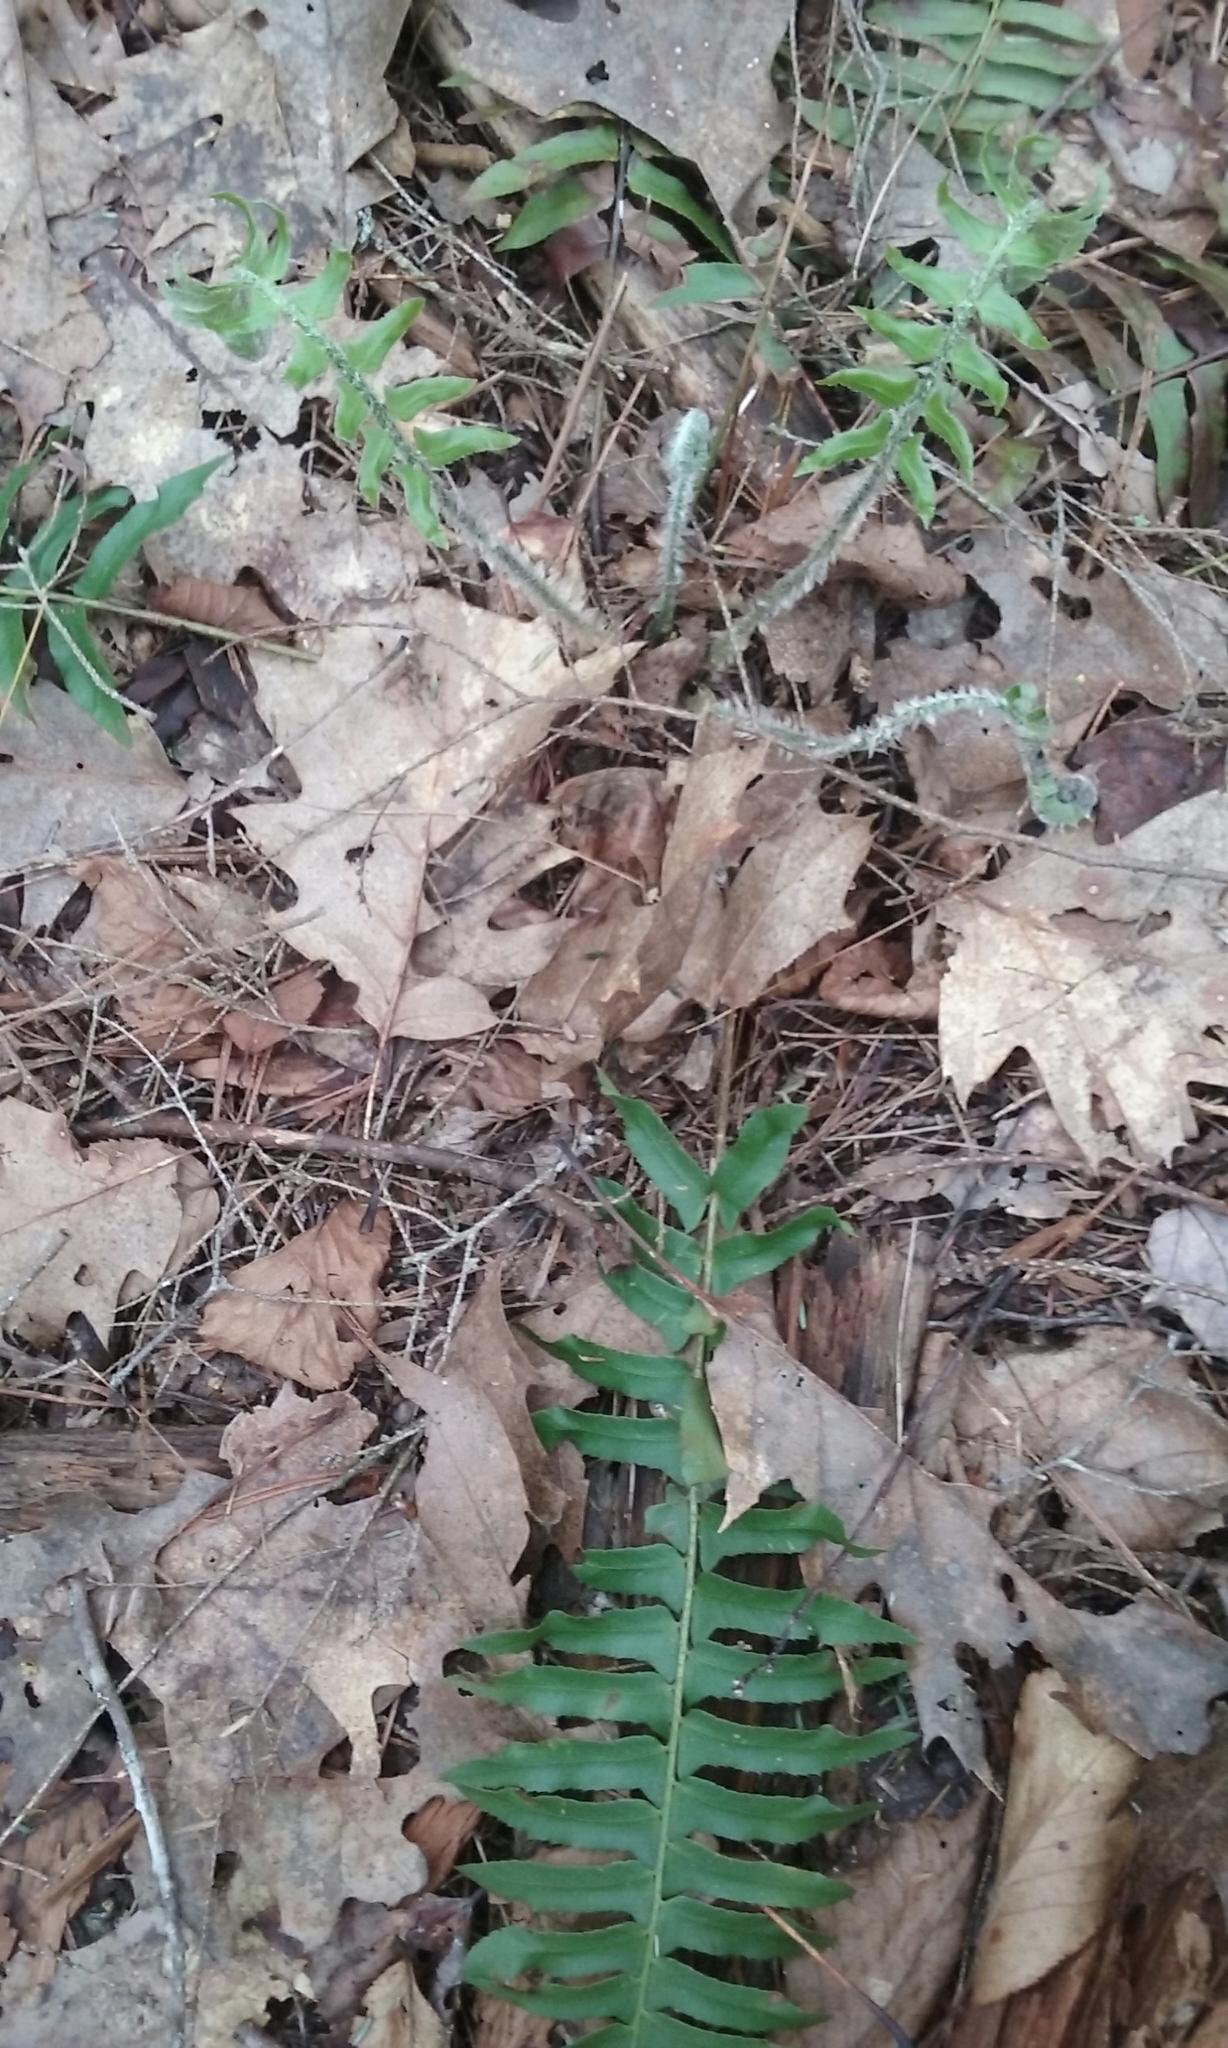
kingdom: Plantae
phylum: Tracheophyta
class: Polypodiopsida
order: Polypodiales
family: Dryopteridaceae
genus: Polystichum
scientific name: Polystichum acrostichoides
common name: Christmas fern
